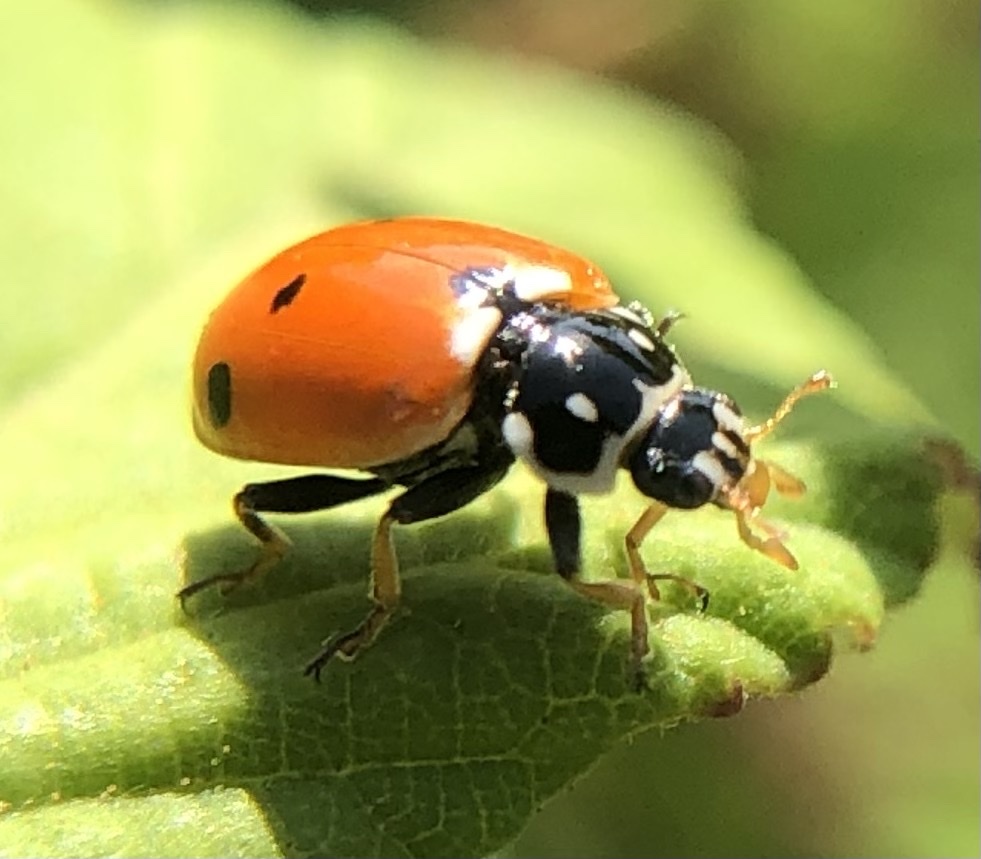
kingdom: Animalia
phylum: Arthropoda
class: Insecta
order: Coleoptera
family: Coccinellidae
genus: Hippodamia
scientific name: Hippodamia variegata
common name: Ladybird beetle
